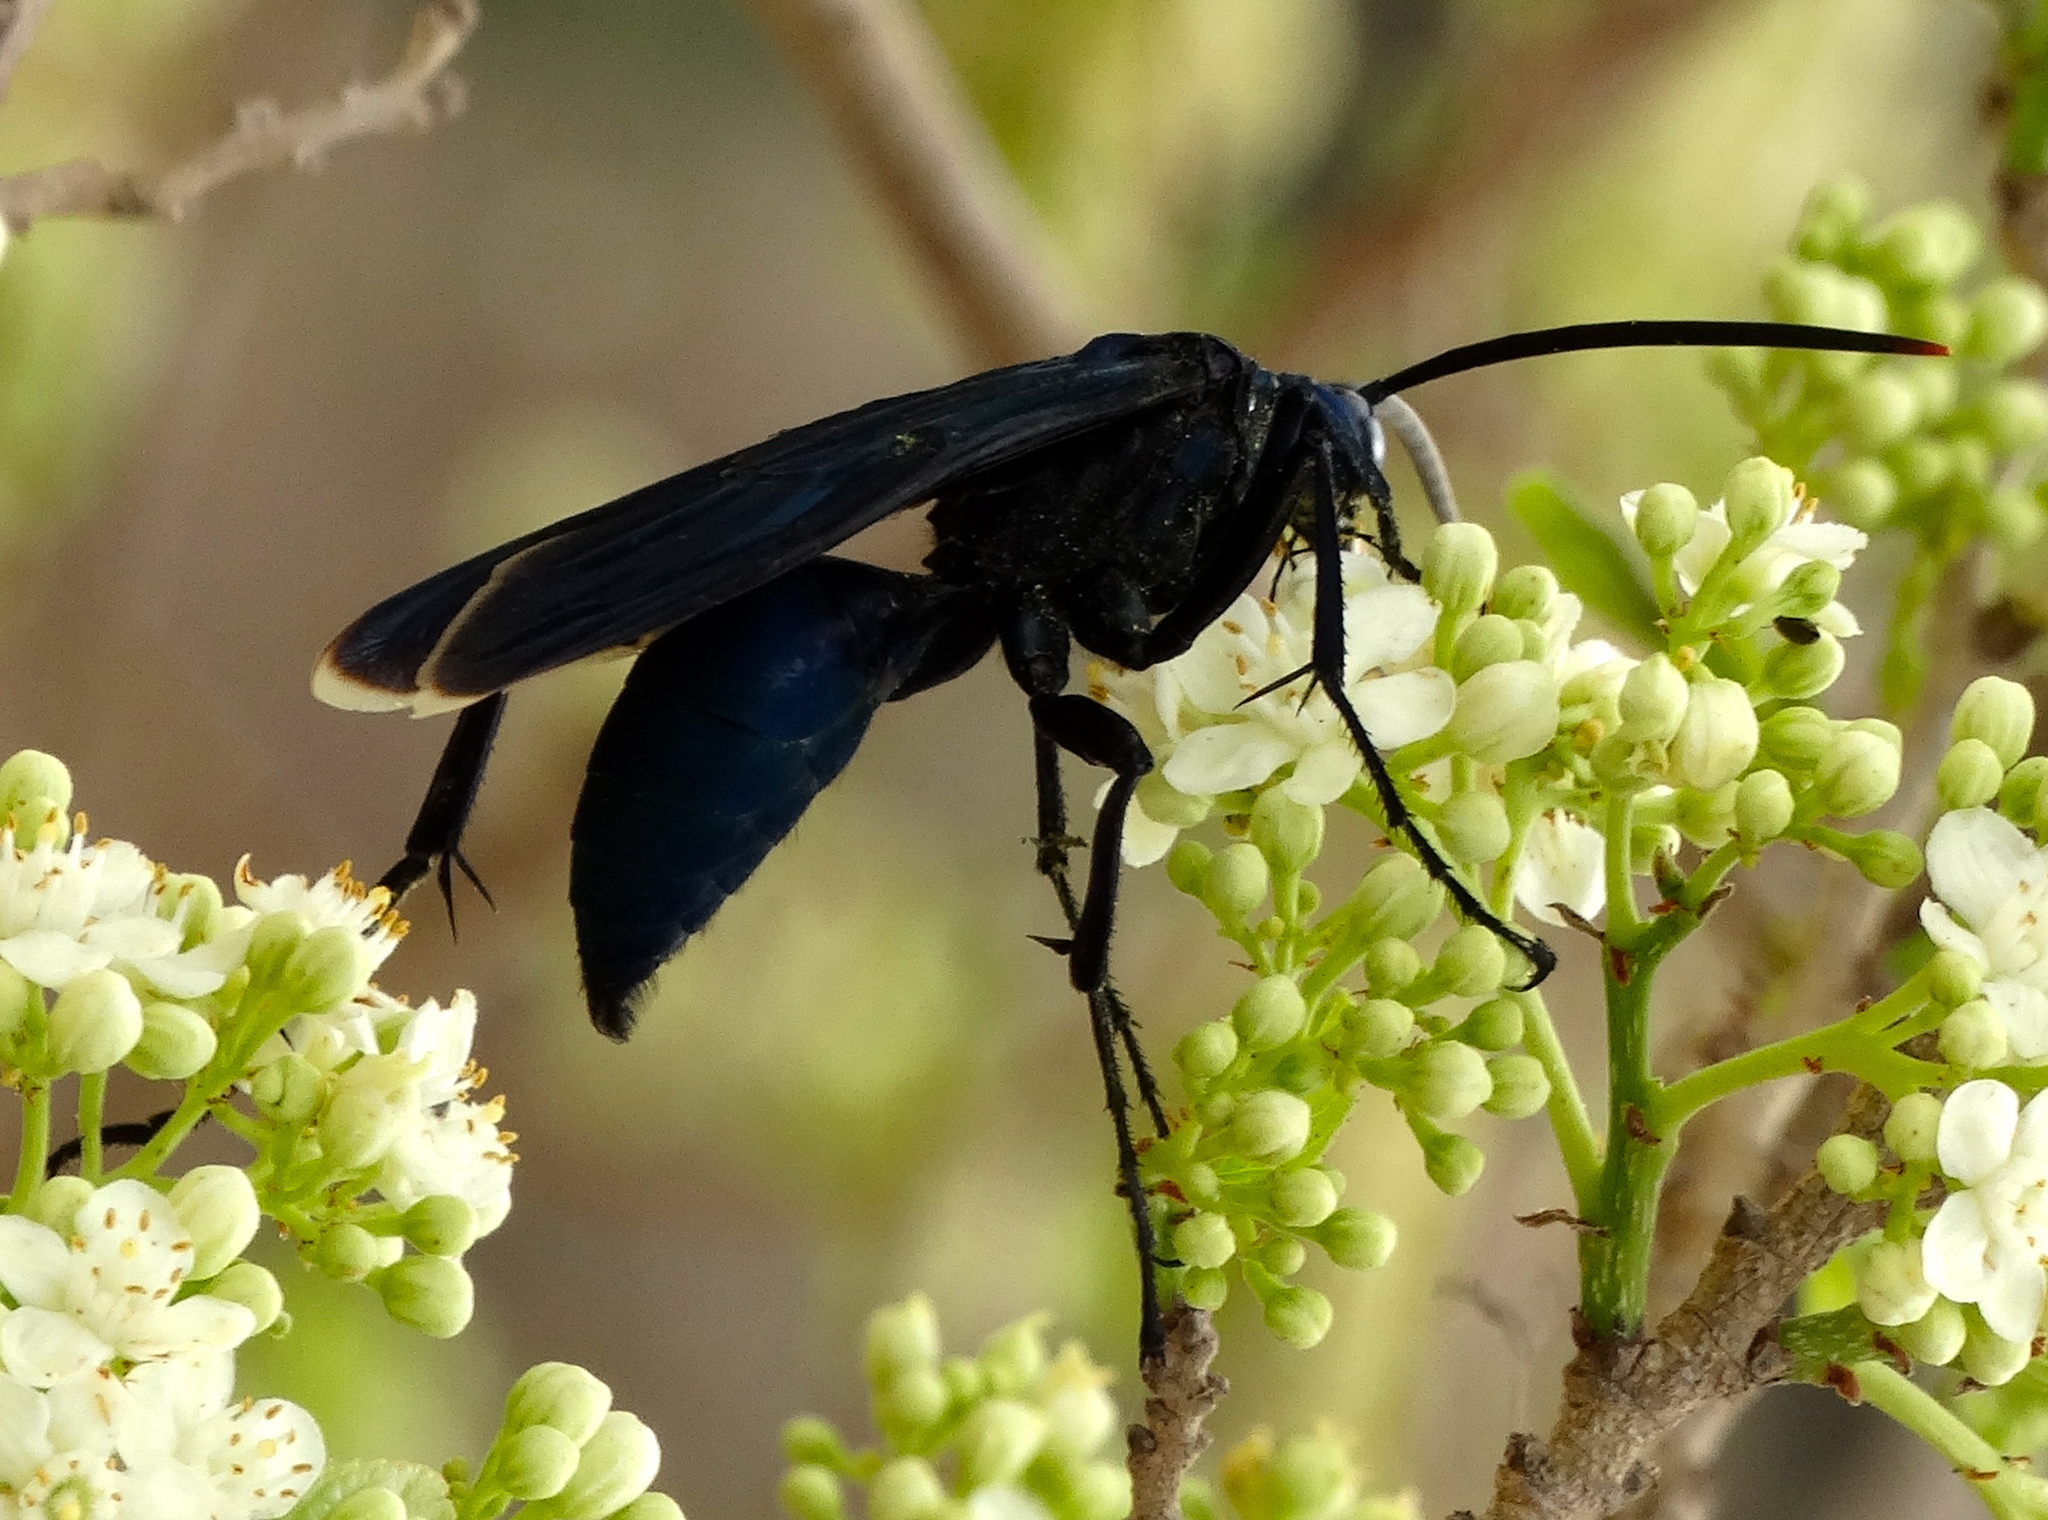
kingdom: Animalia
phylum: Arthropoda
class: Insecta
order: Hymenoptera
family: Pompilidae
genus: Pepsis
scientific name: Pepsis
